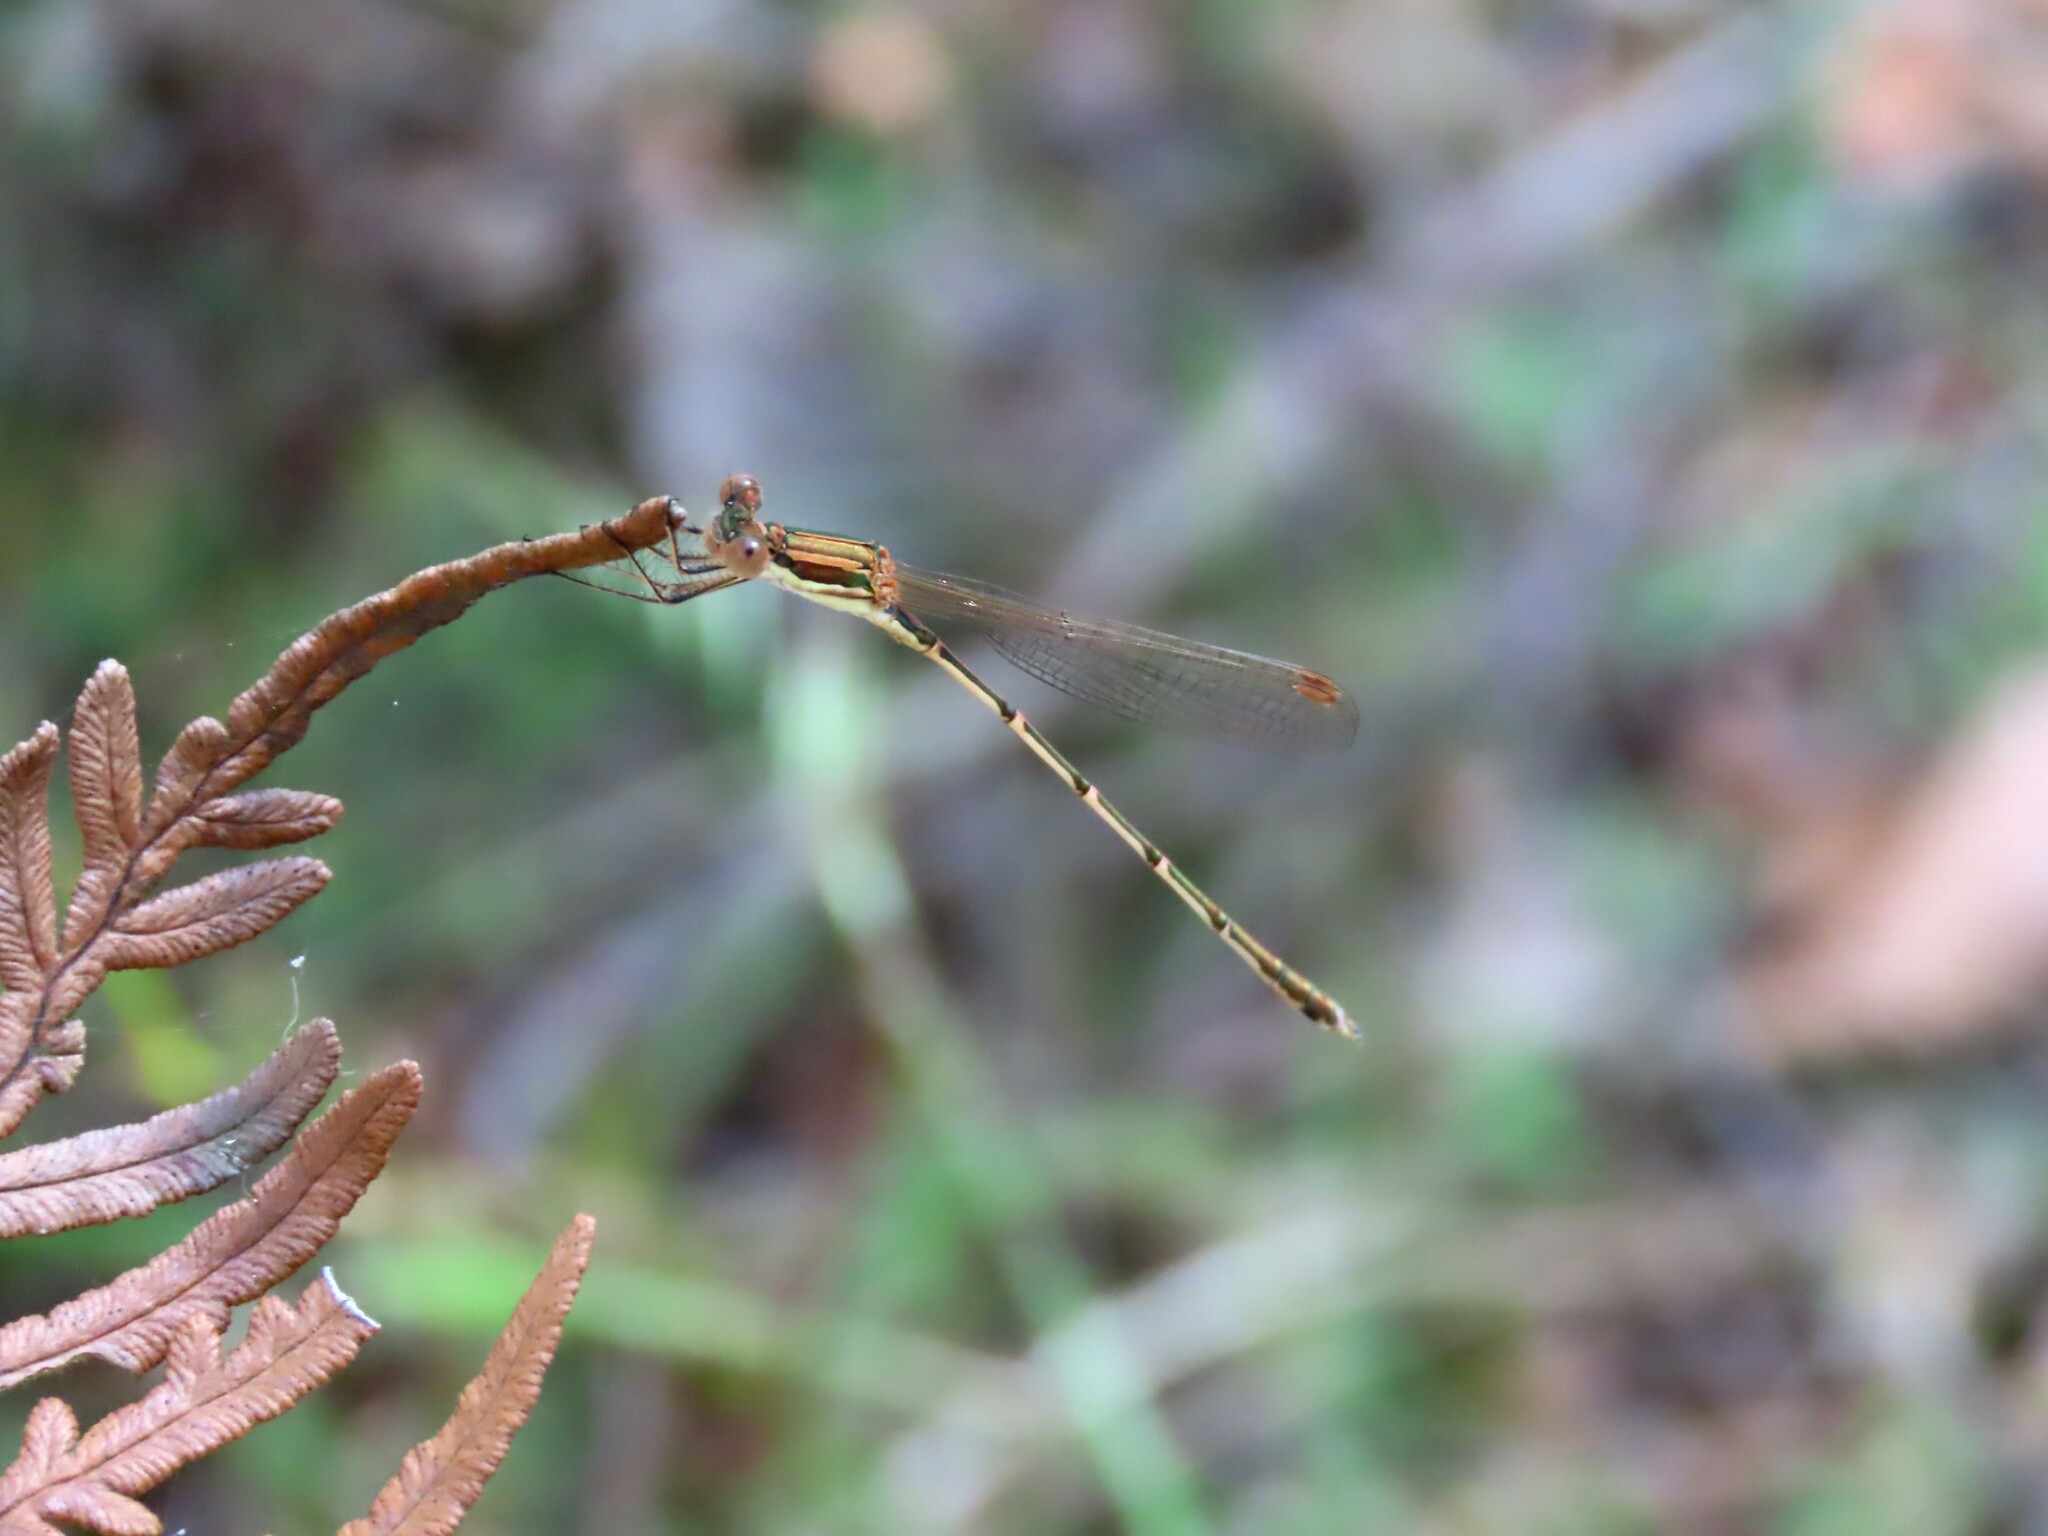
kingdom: Animalia
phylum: Arthropoda
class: Insecta
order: Odonata
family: Lestidae
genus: Austrolestes
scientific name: Austrolestes analis
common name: Slender ringtail
